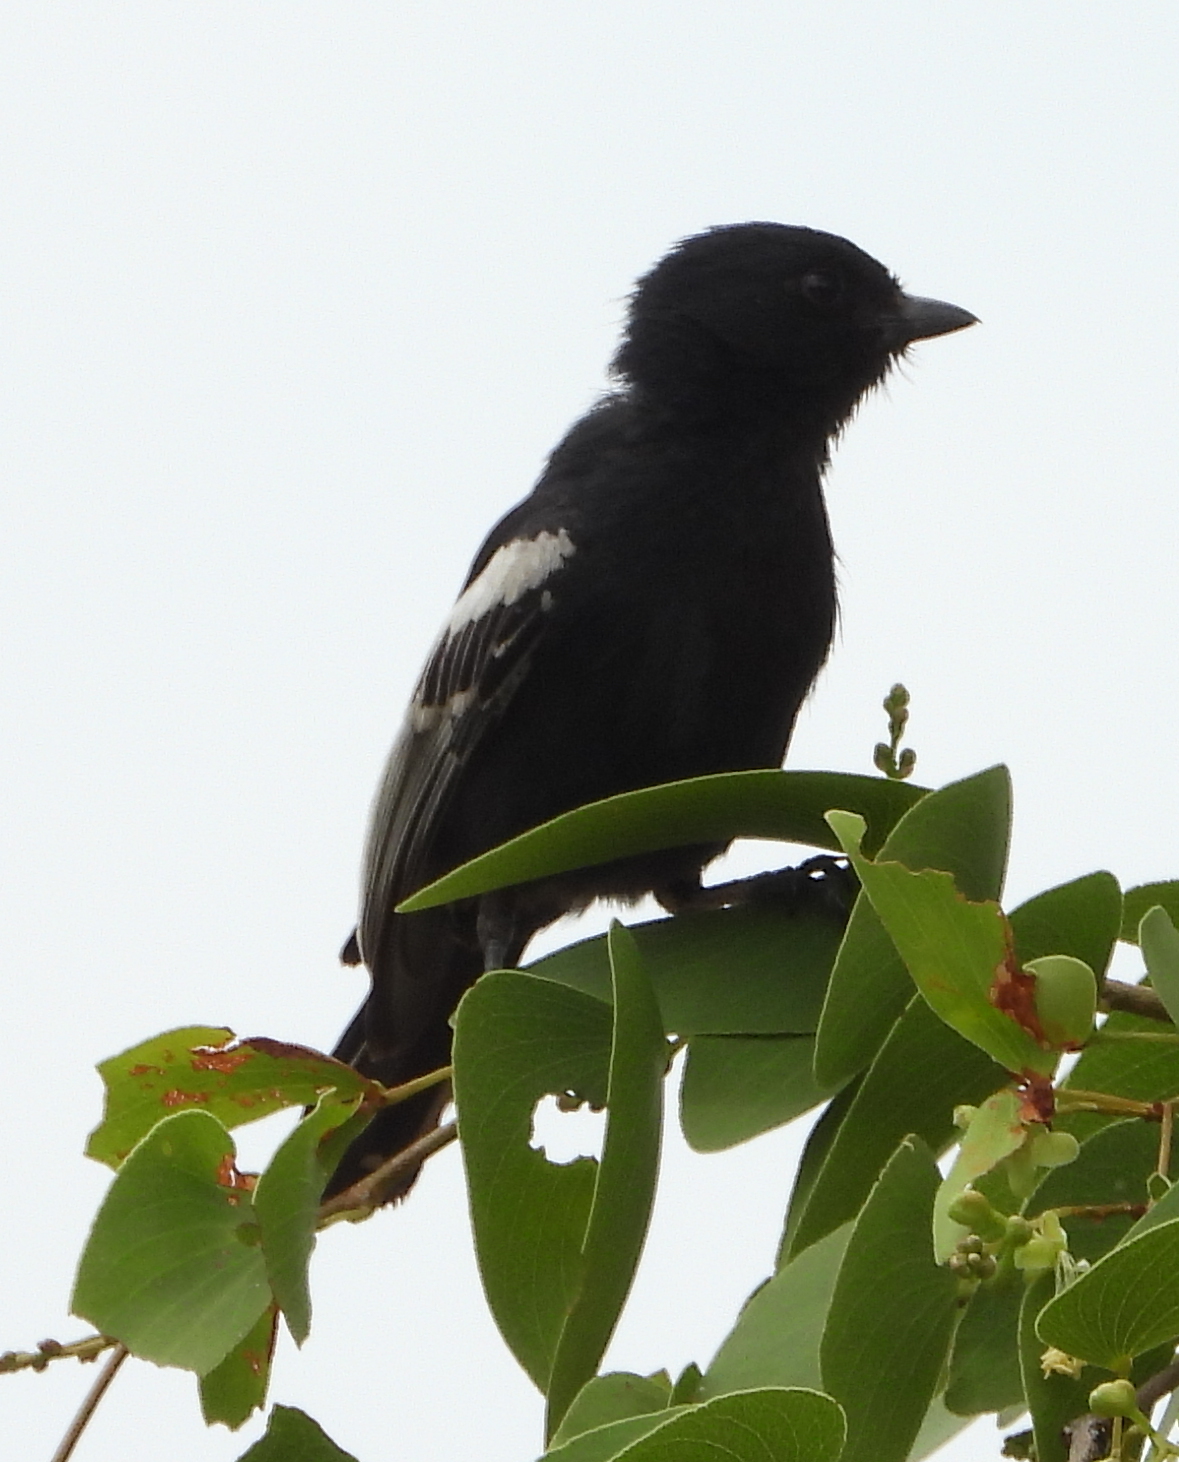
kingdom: Animalia
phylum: Chordata
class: Aves
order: Passeriformes
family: Paridae
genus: Parus
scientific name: Parus niger
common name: Southern black tit
